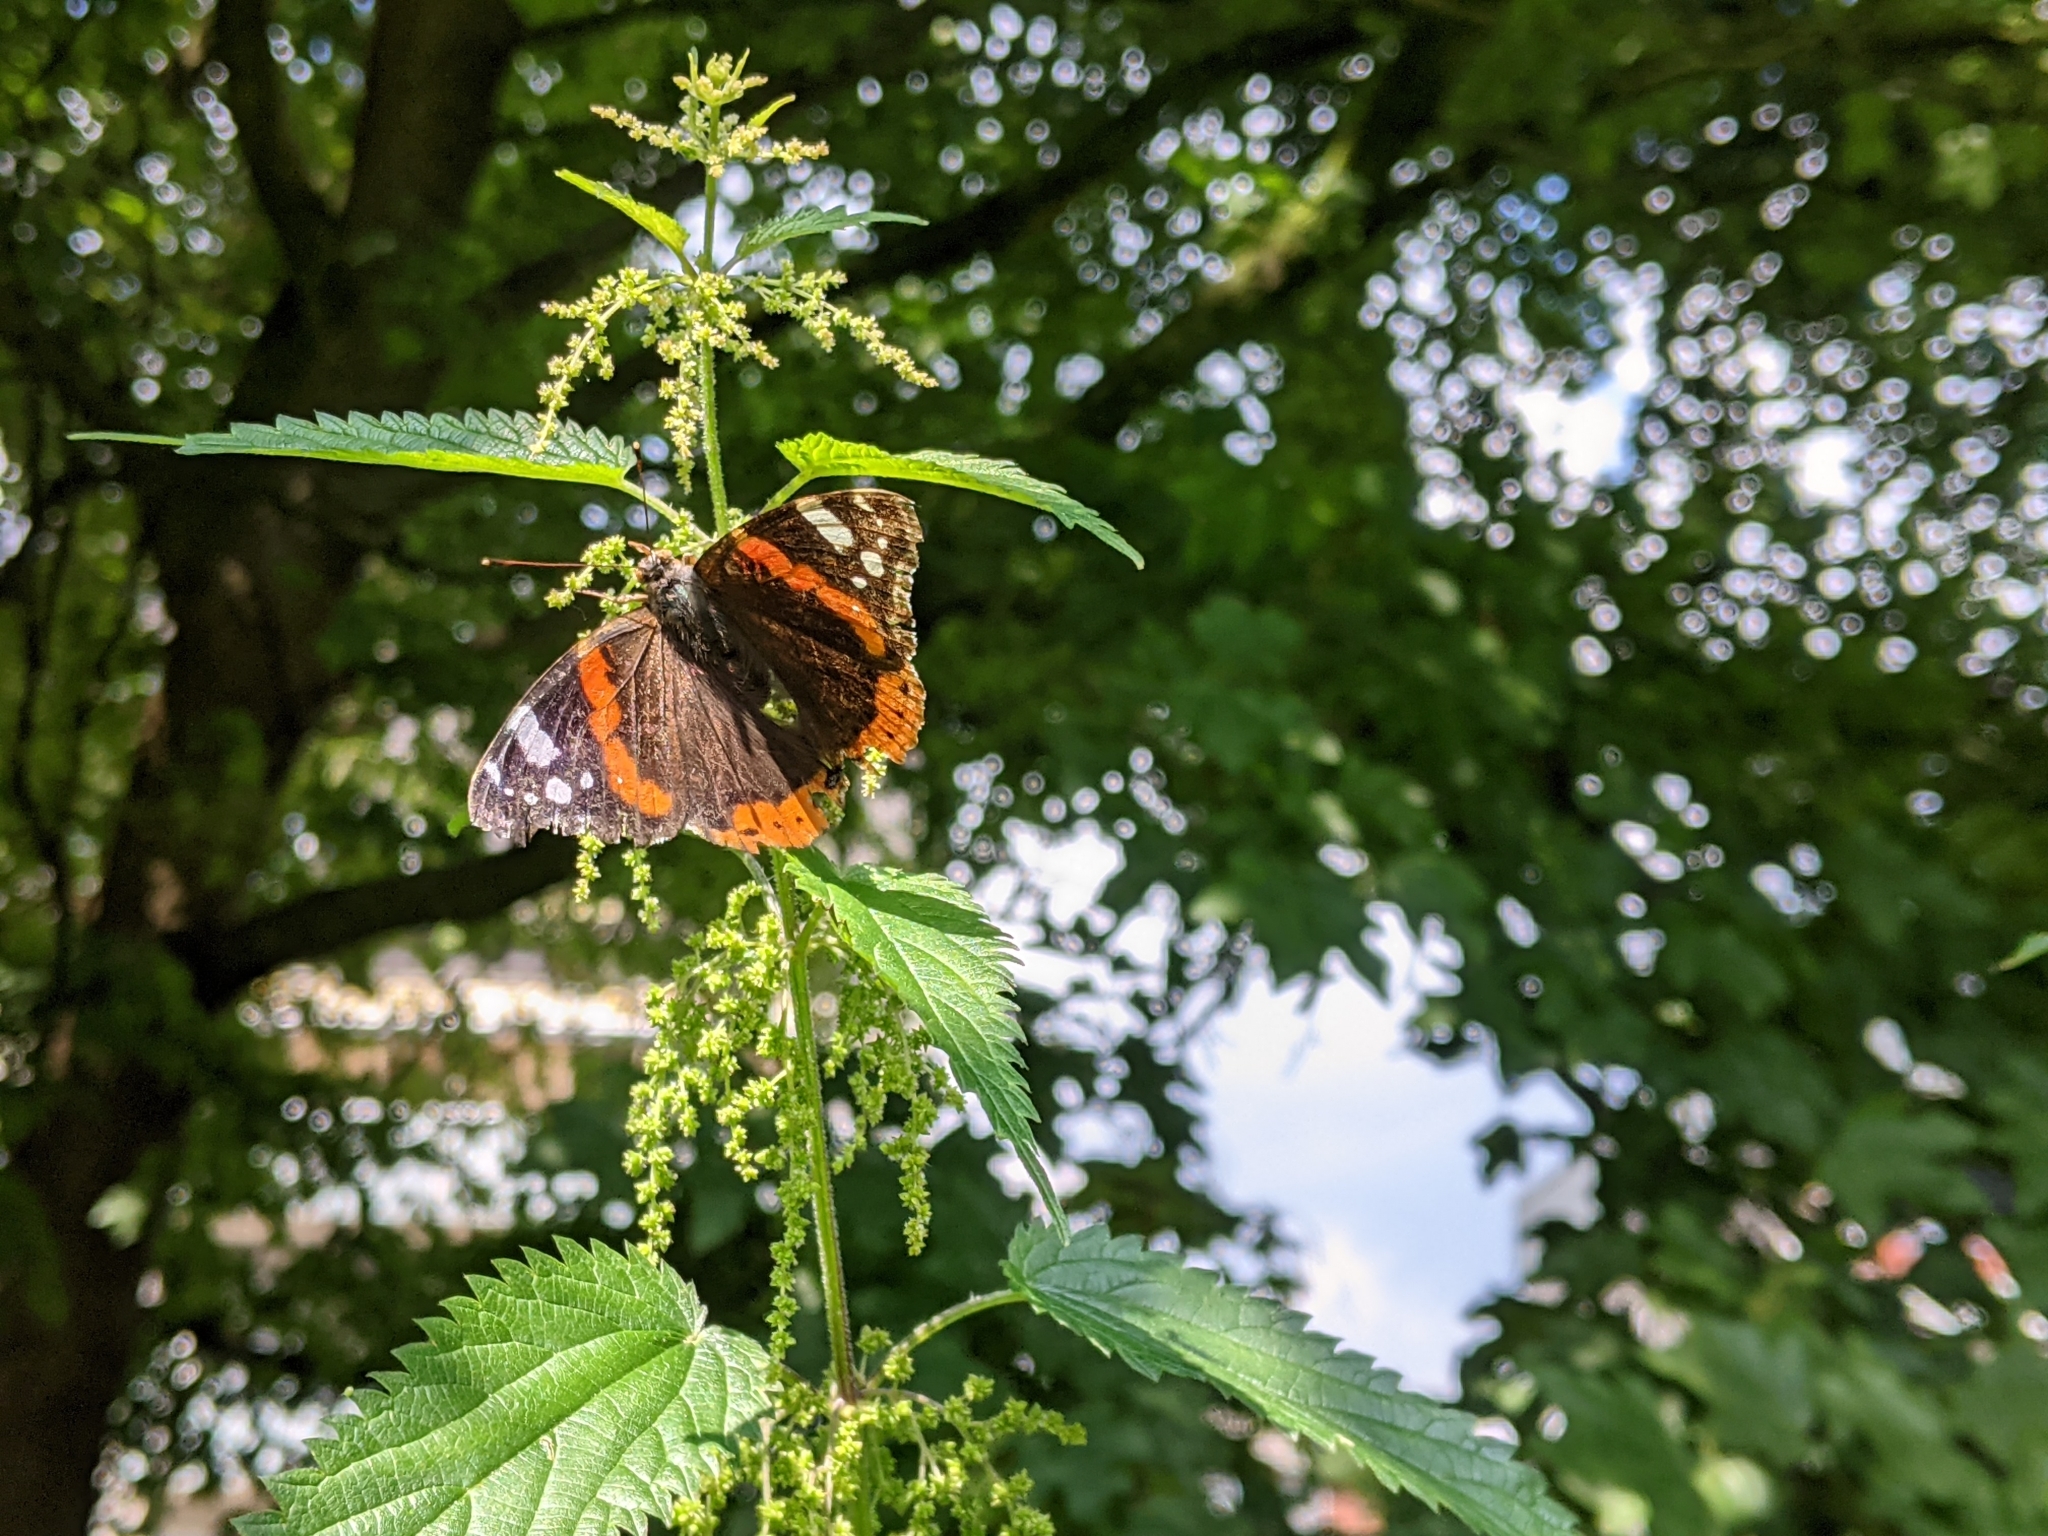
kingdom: Animalia
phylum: Arthropoda
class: Insecta
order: Lepidoptera
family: Nymphalidae
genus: Vanessa
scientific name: Vanessa atalanta
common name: Red admiral
